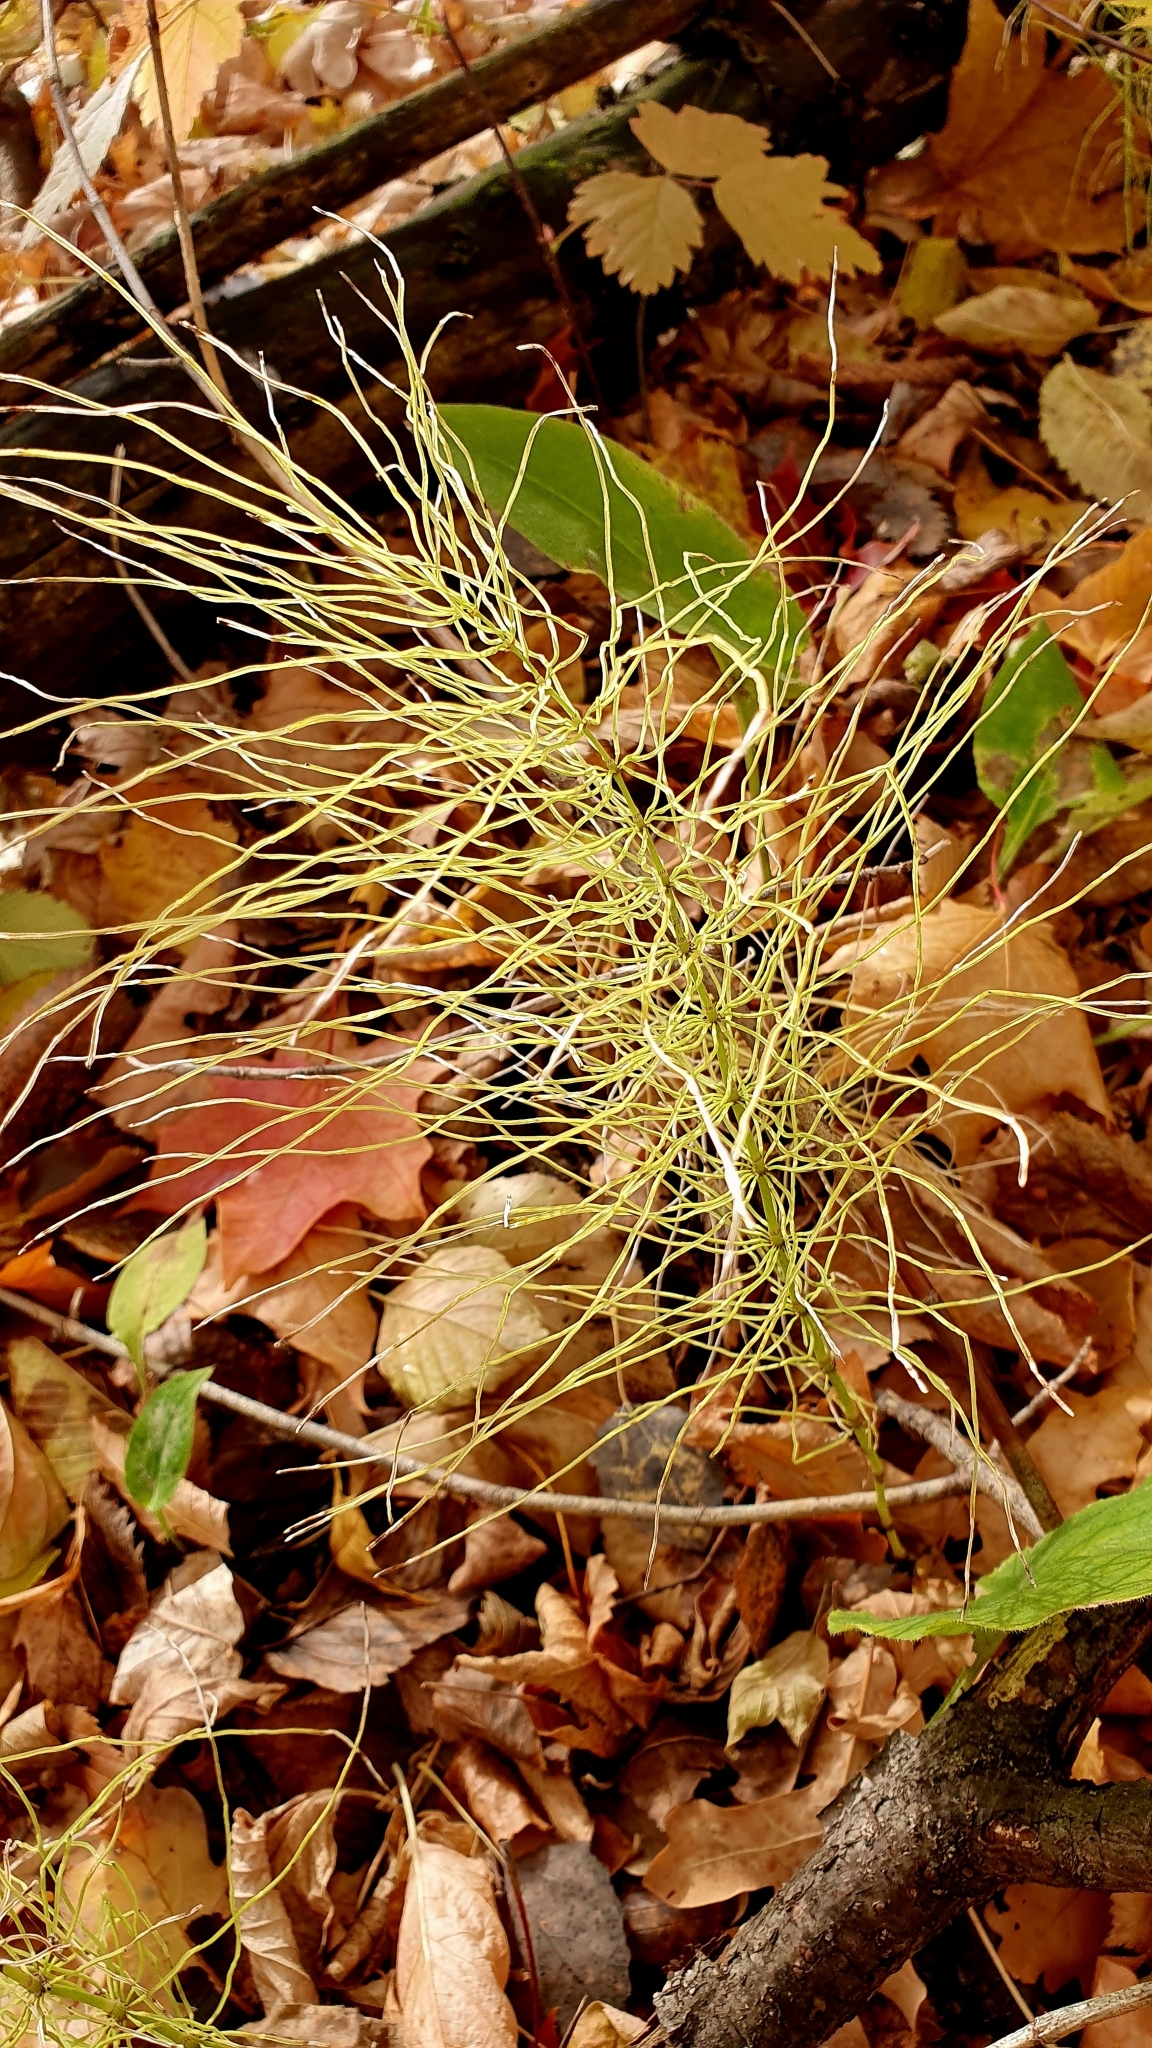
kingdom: Plantae
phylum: Tracheophyta
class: Polypodiopsida
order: Equisetales
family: Equisetaceae
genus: Equisetum
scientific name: Equisetum pratense
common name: Meadow horsetail
